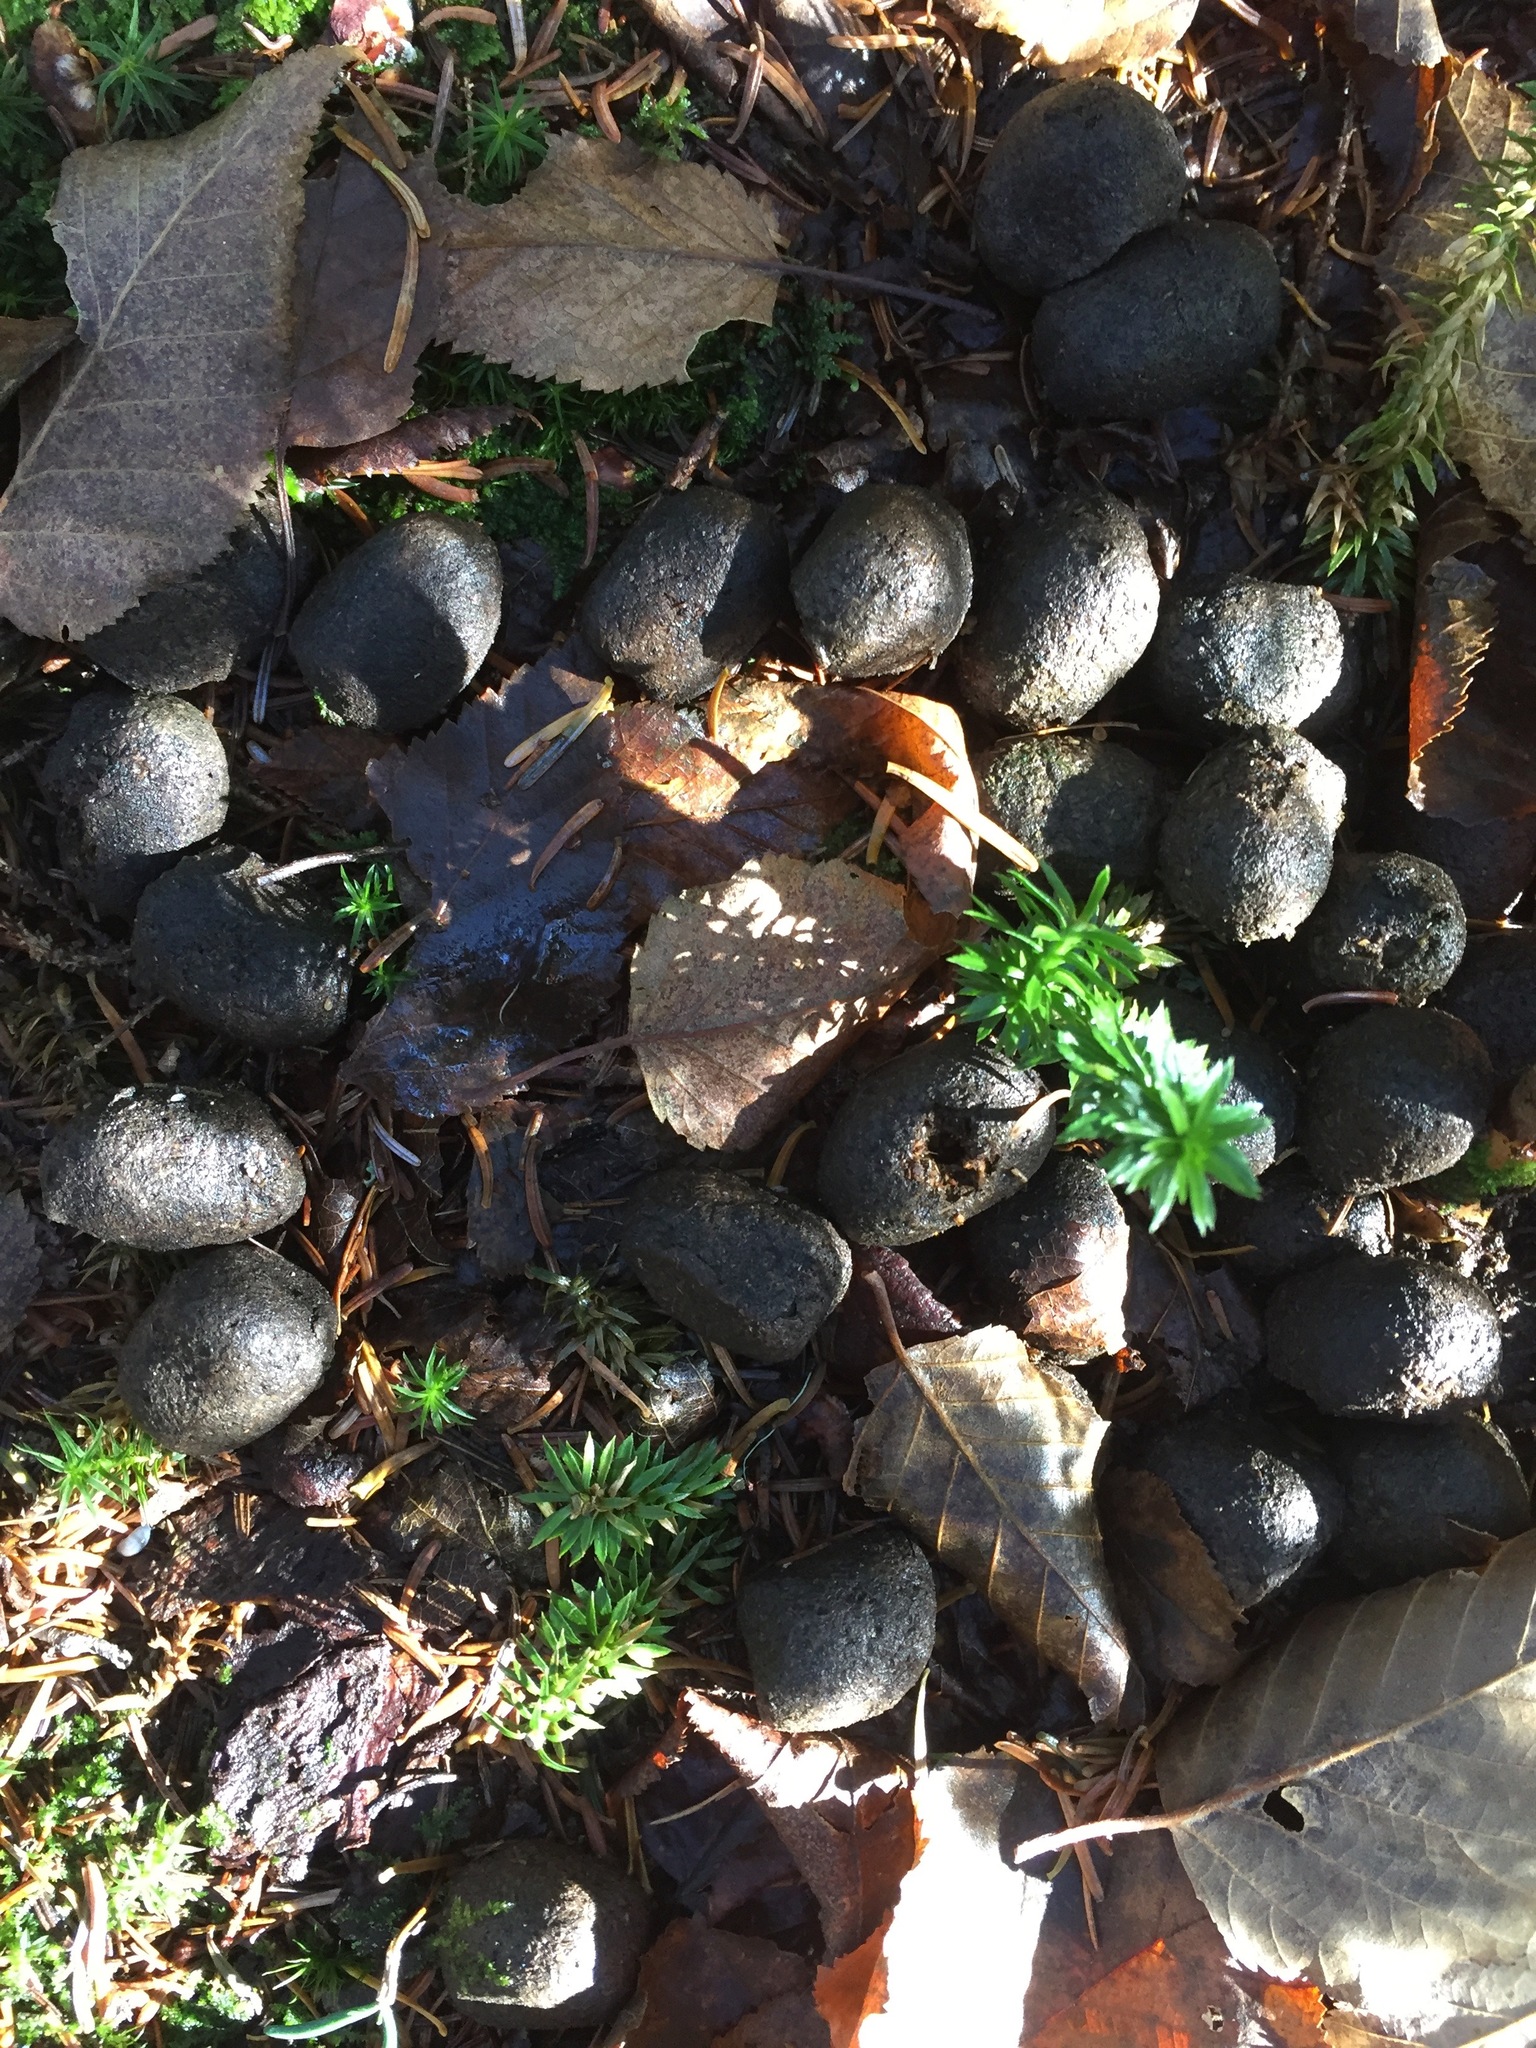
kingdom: Animalia
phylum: Chordata
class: Mammalia
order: Artiodactyla
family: Cervidae
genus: Alces
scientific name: Alces alces
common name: Moose
